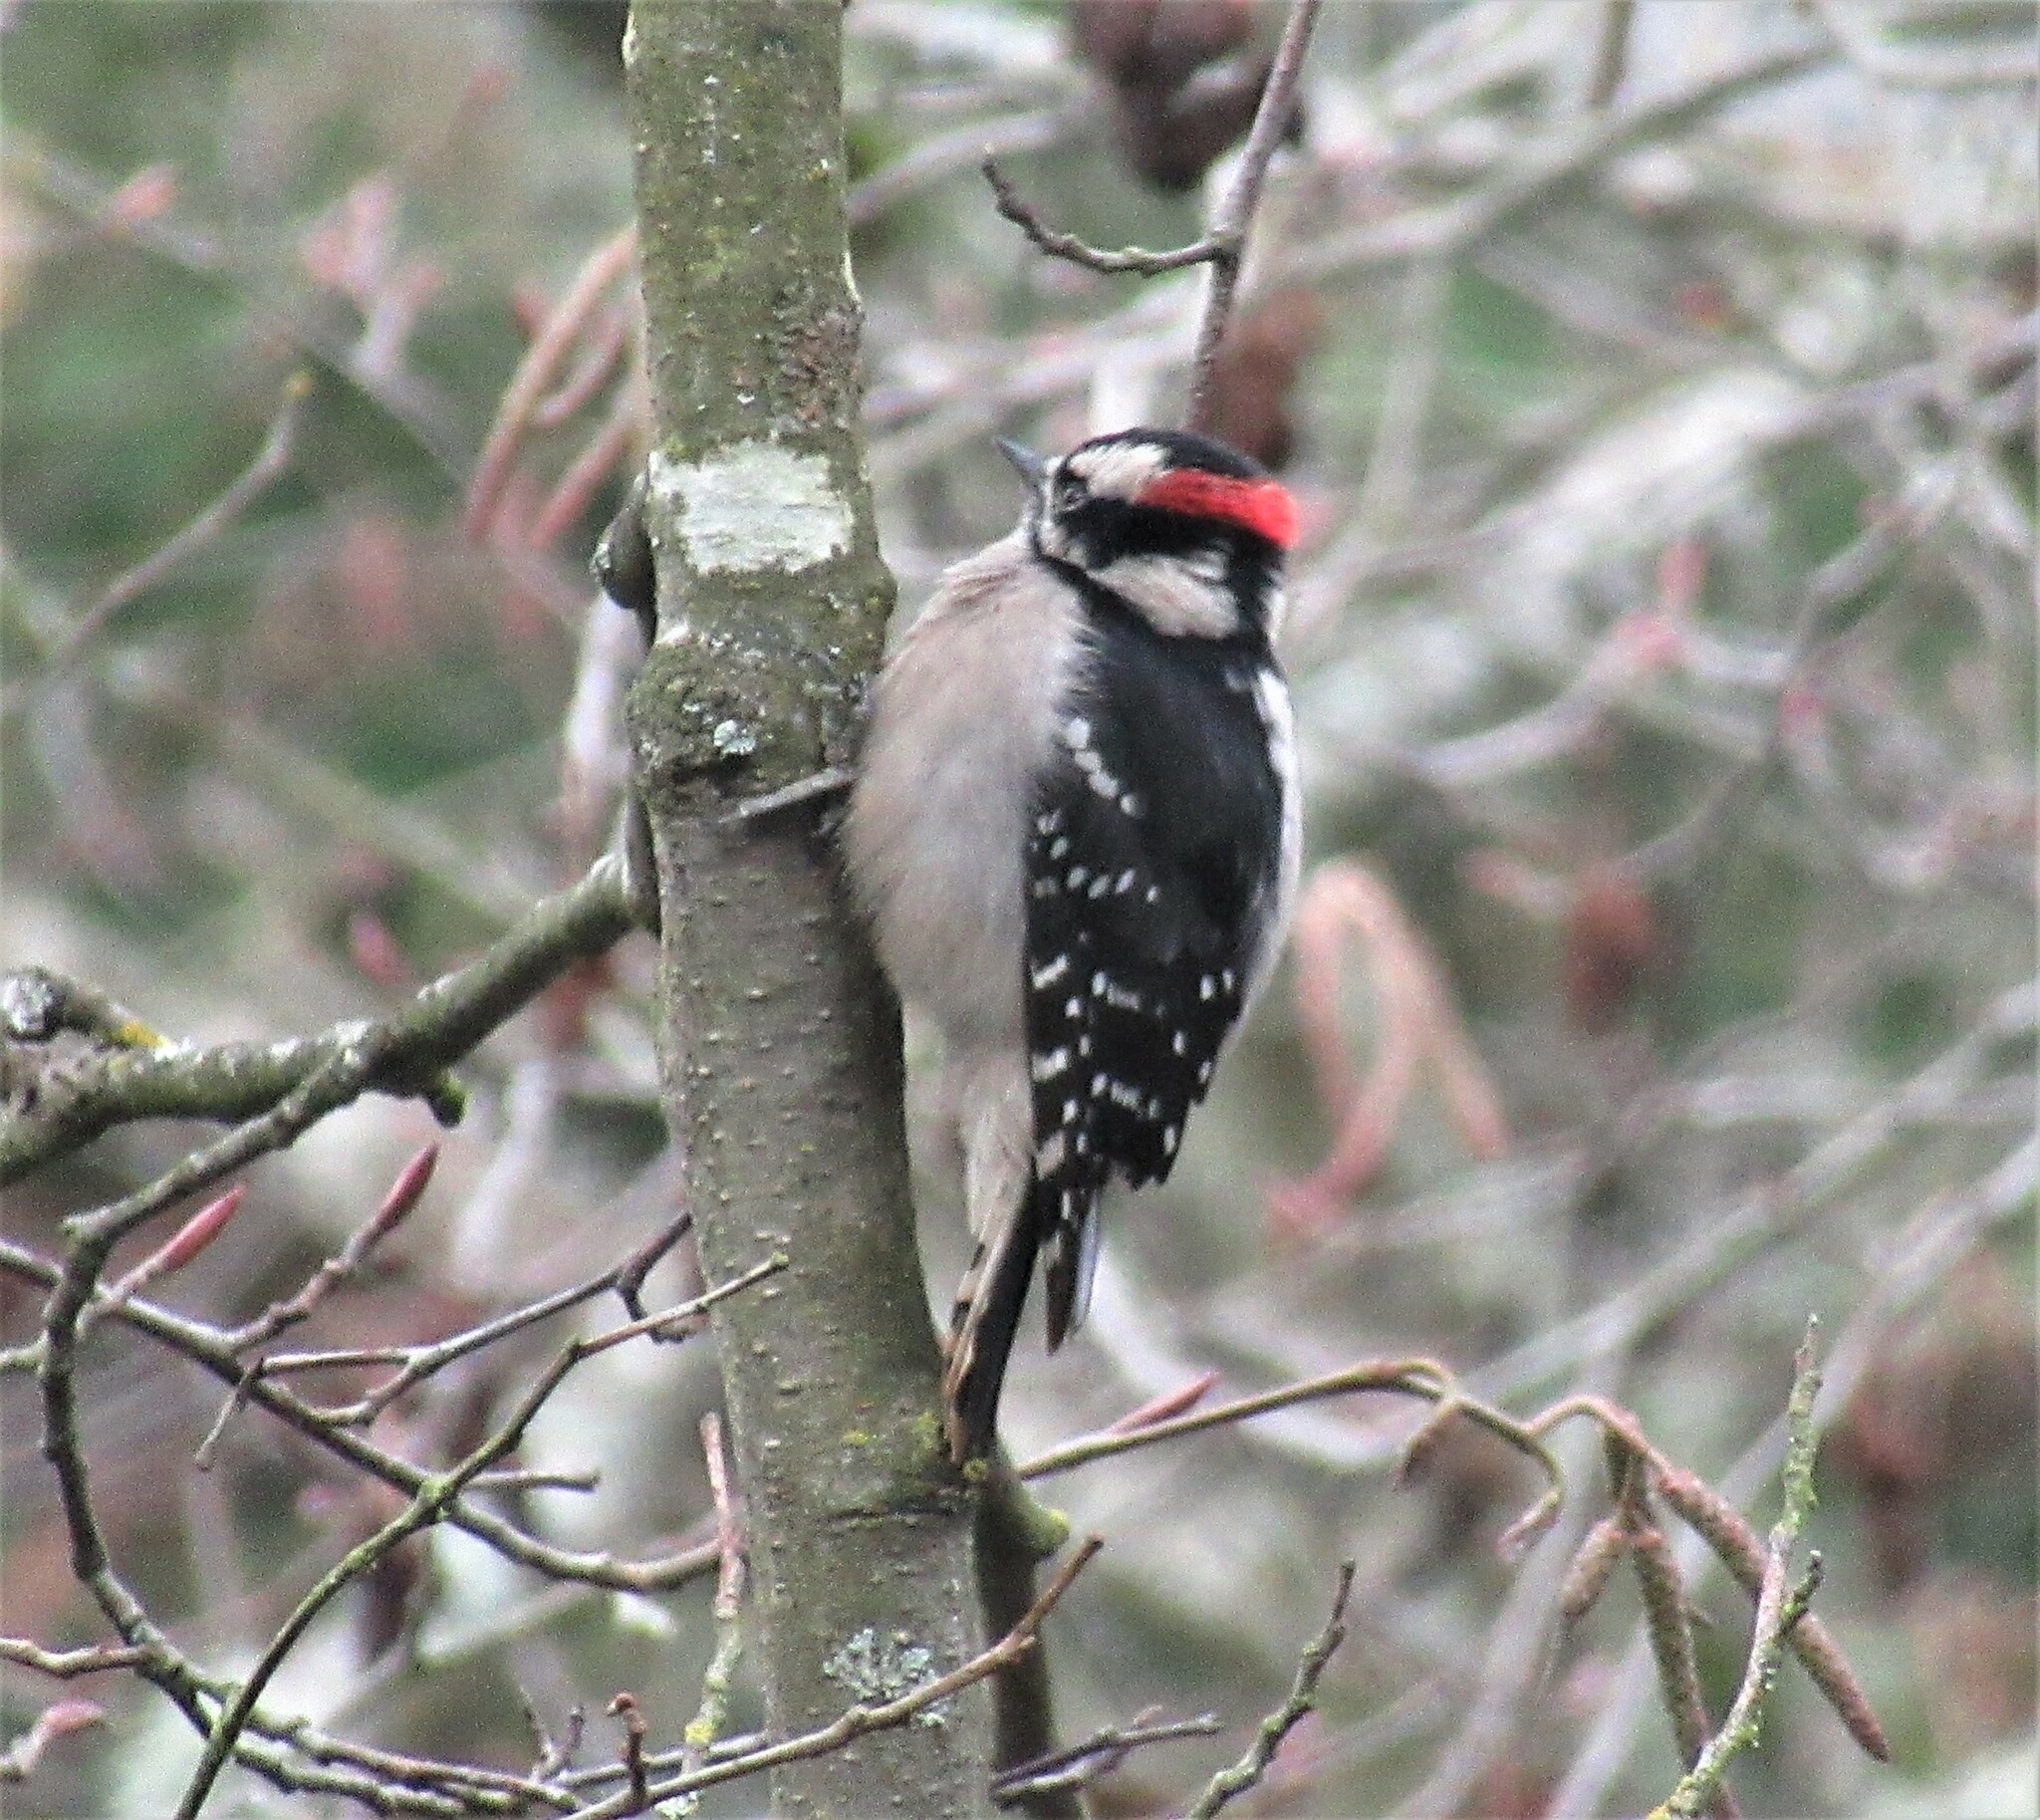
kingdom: Animalia
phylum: Chordata
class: Aves
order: Piciformes
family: Picidae
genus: Dryobates
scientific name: Dryobates pubescens
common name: Downy woodpecker
